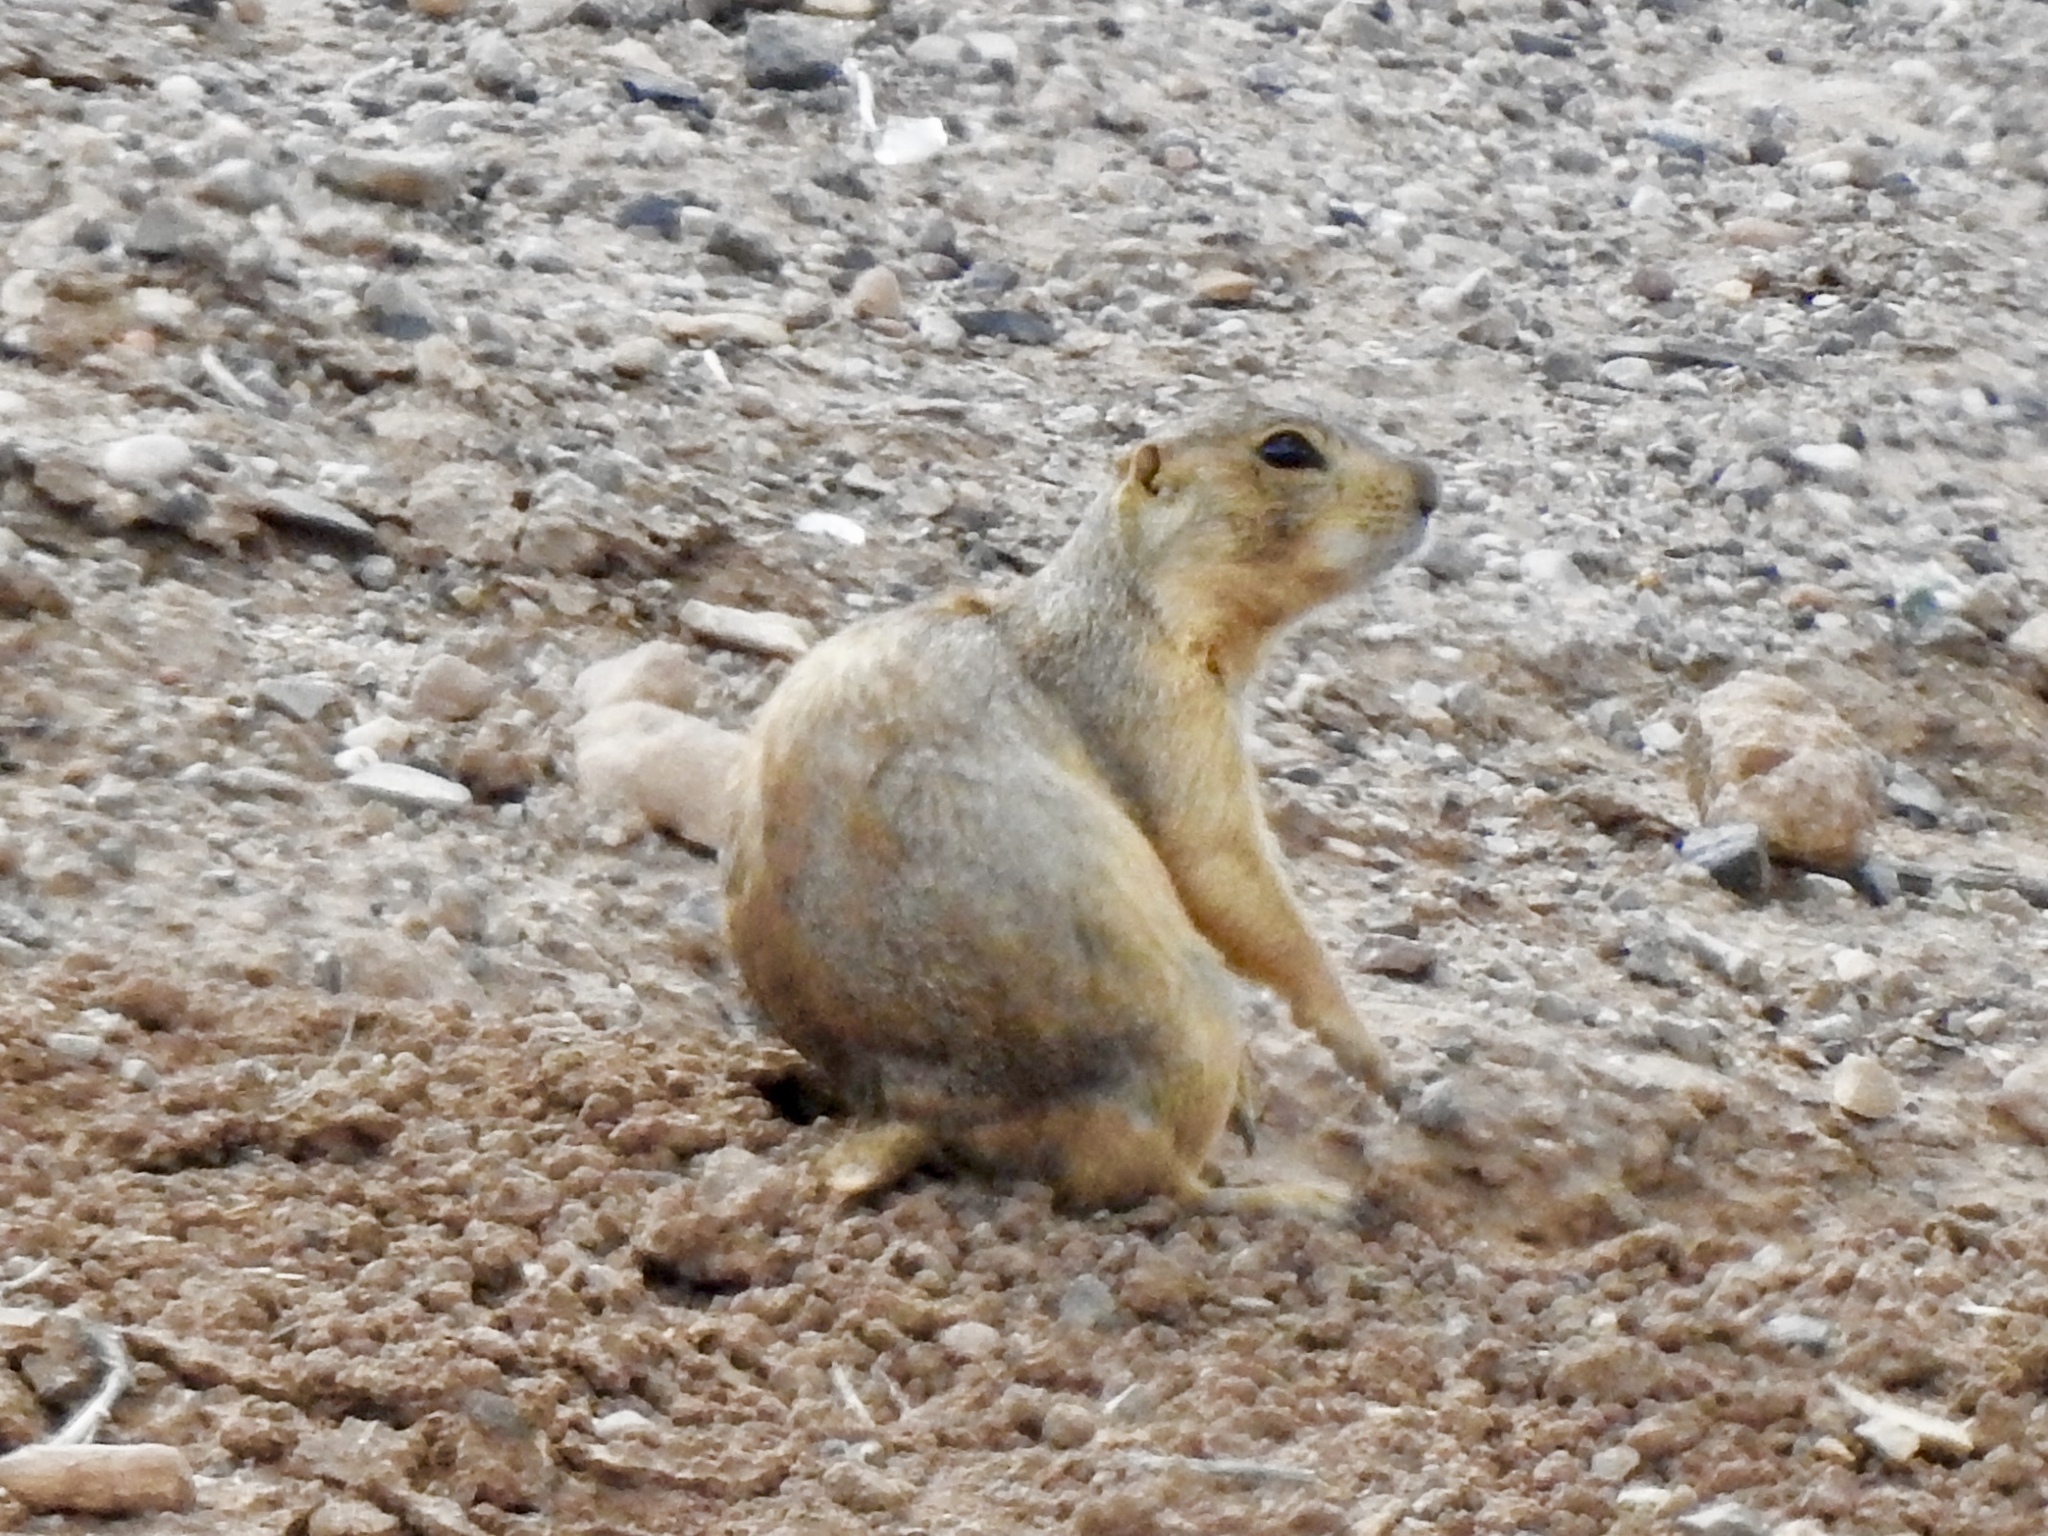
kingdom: Animalia
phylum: Chordata
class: Mammalia
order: Rodentia
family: Sciuridae
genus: Cynomys
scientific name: Cynomys gunnisoni
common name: Gunnison's prairie dog
